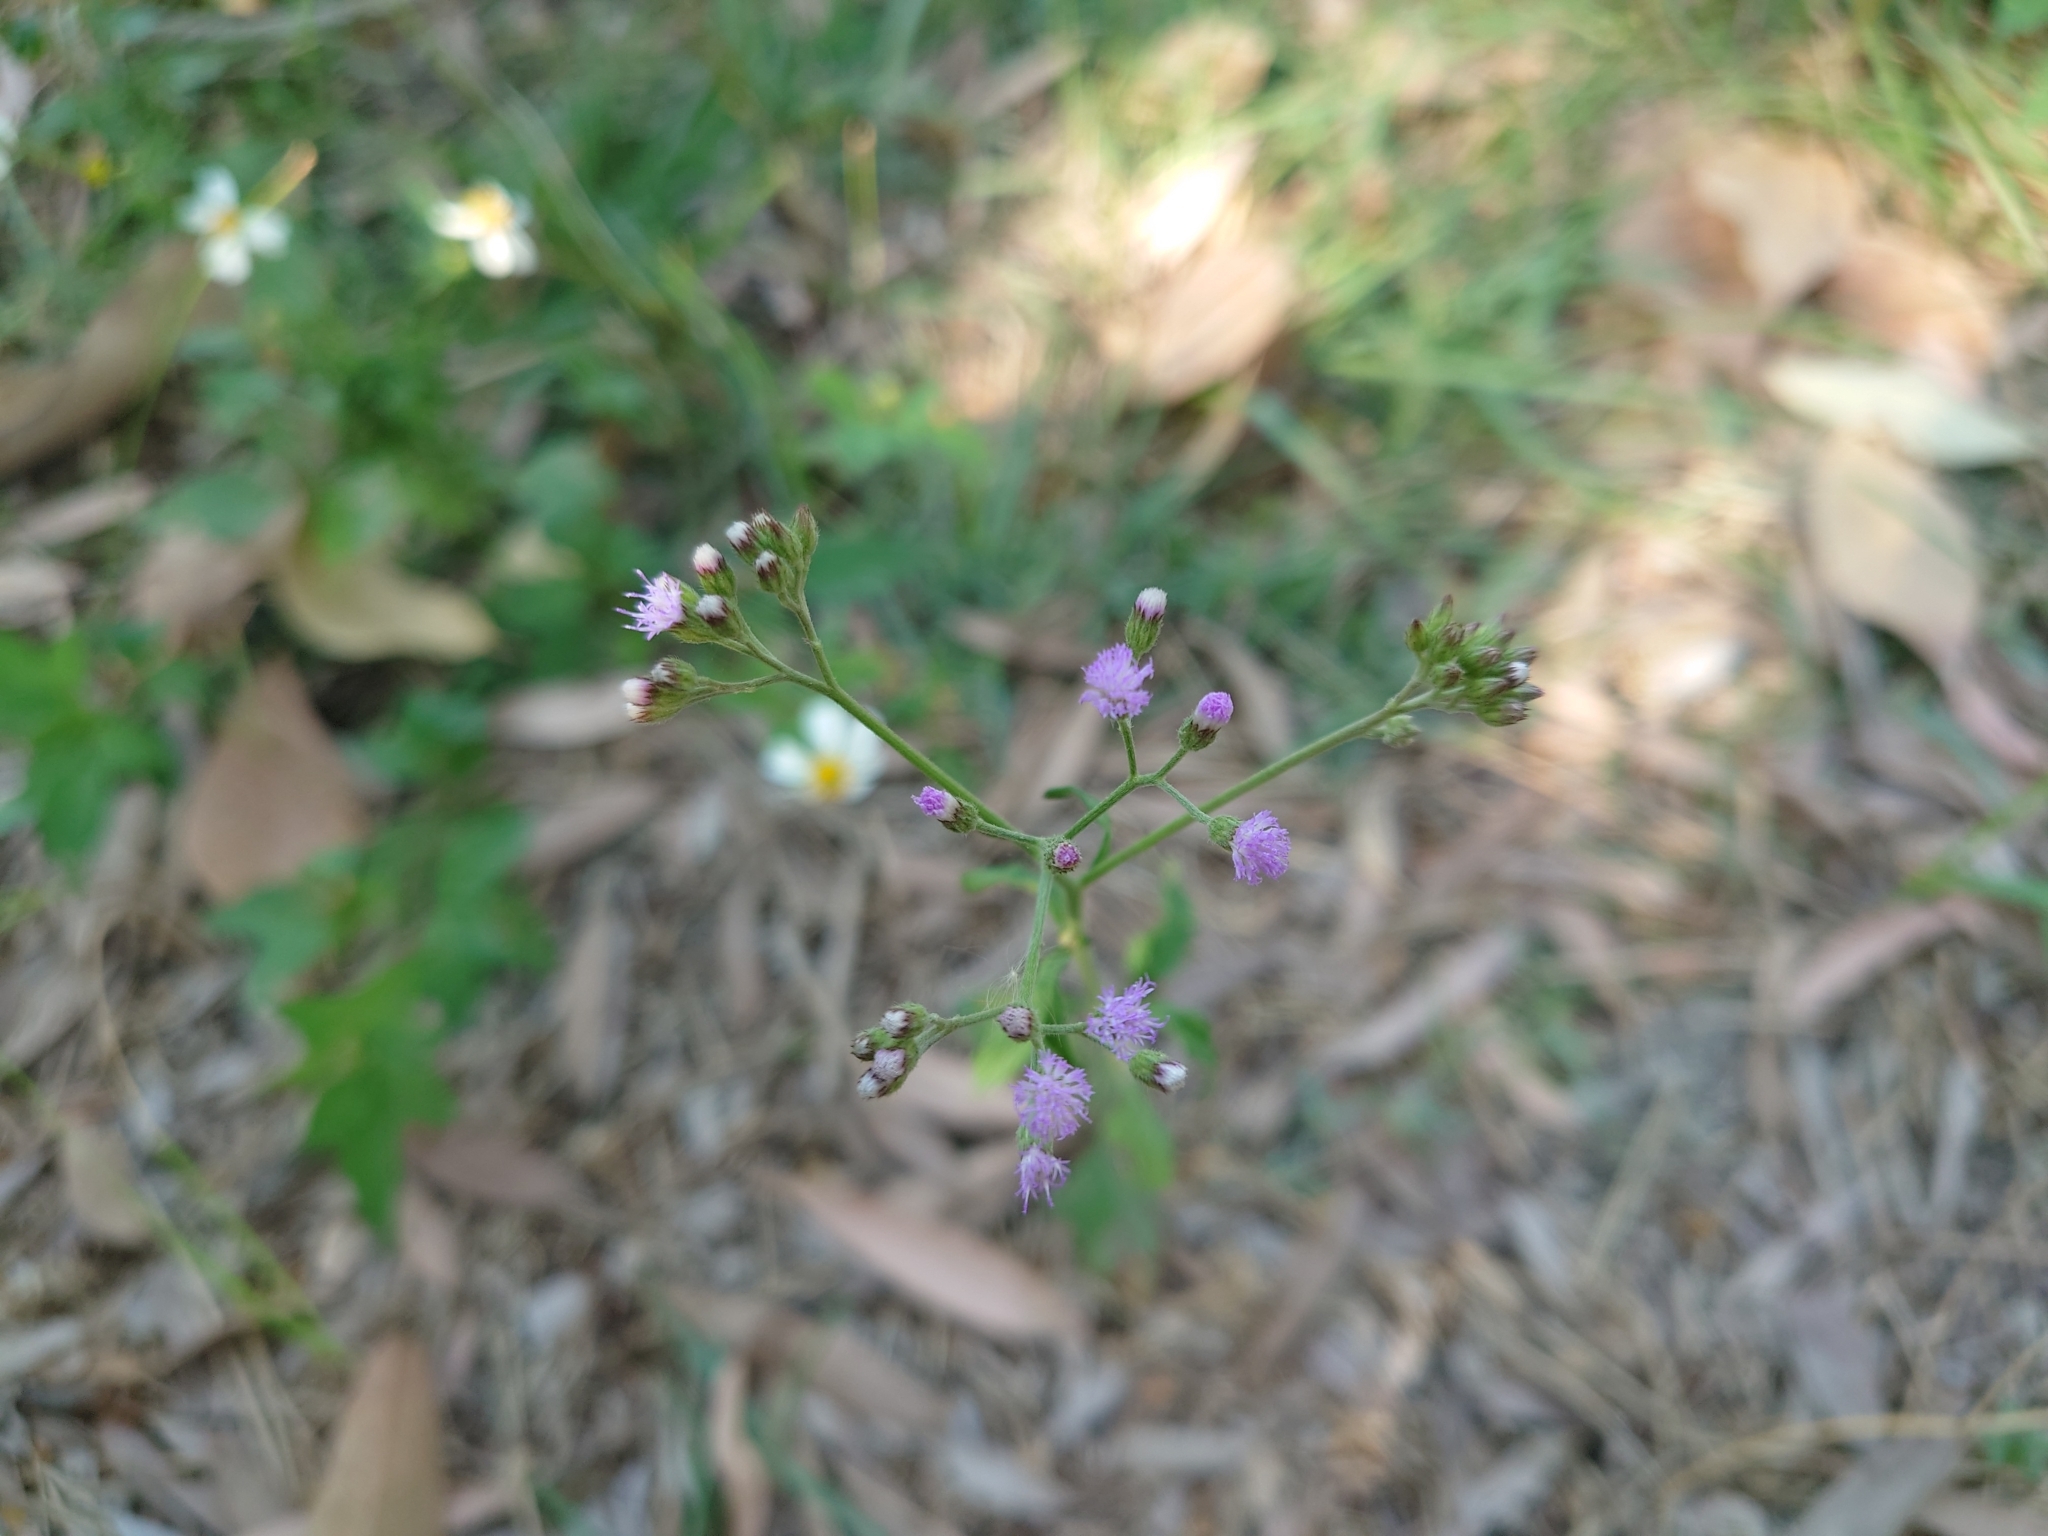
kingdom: Plantae
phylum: Tracheophyta
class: Magnoliopsida
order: Asterales
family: Asteraceae
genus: Cyanthillium
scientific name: Cyanthillium cinereum
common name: Little ironweed
